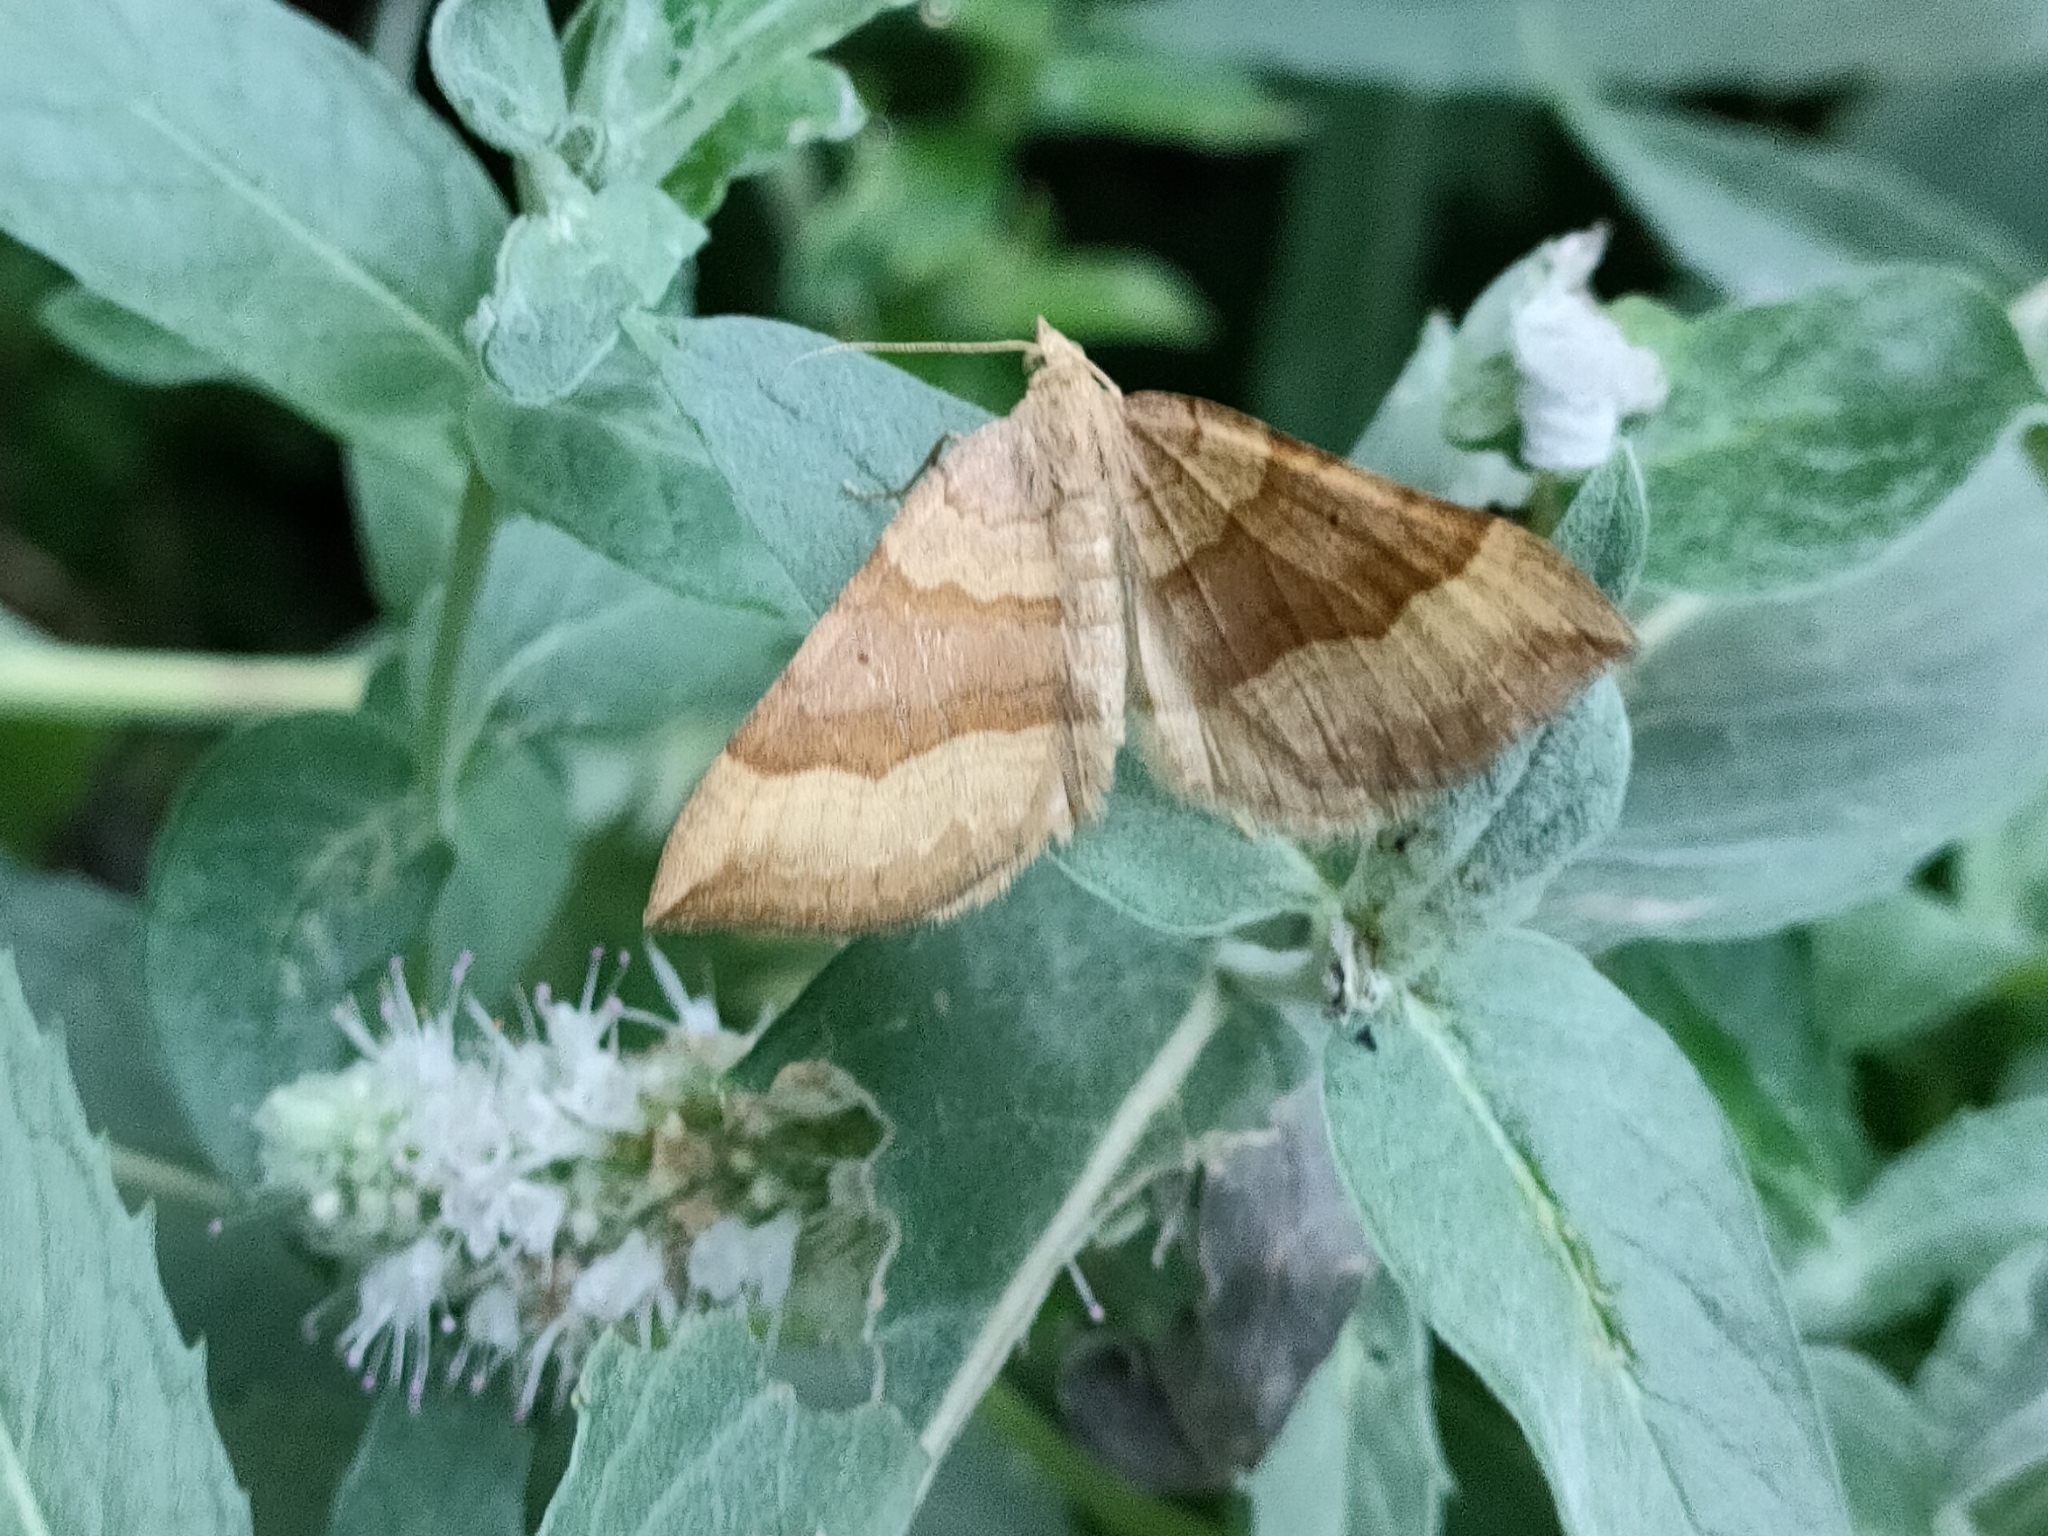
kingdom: Animalia
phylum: Arthropoda
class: Insecta
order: Lepidoptera
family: Geometridae
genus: Scotopteryx
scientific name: Scotopteryx chenopodiata
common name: Shaded broad-bar
